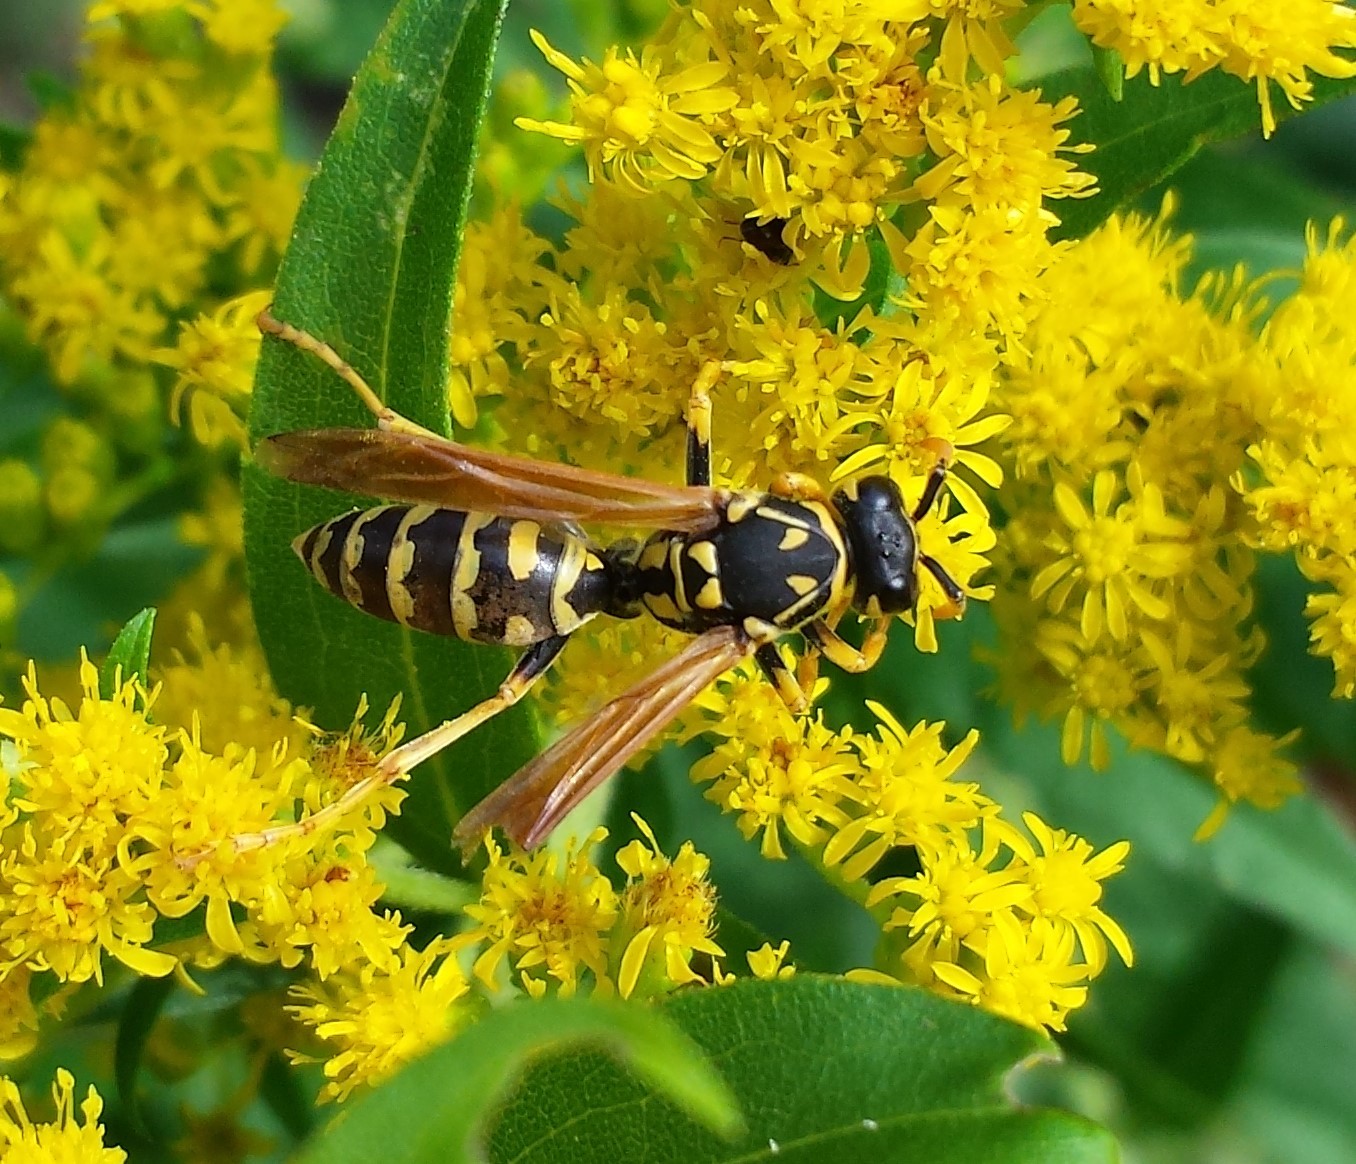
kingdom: Animalia
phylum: Arthropoda
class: Insecta
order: Hymenoptera
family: Eumenidae
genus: Polistes
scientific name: Polistes dominula
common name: Paper wasp
